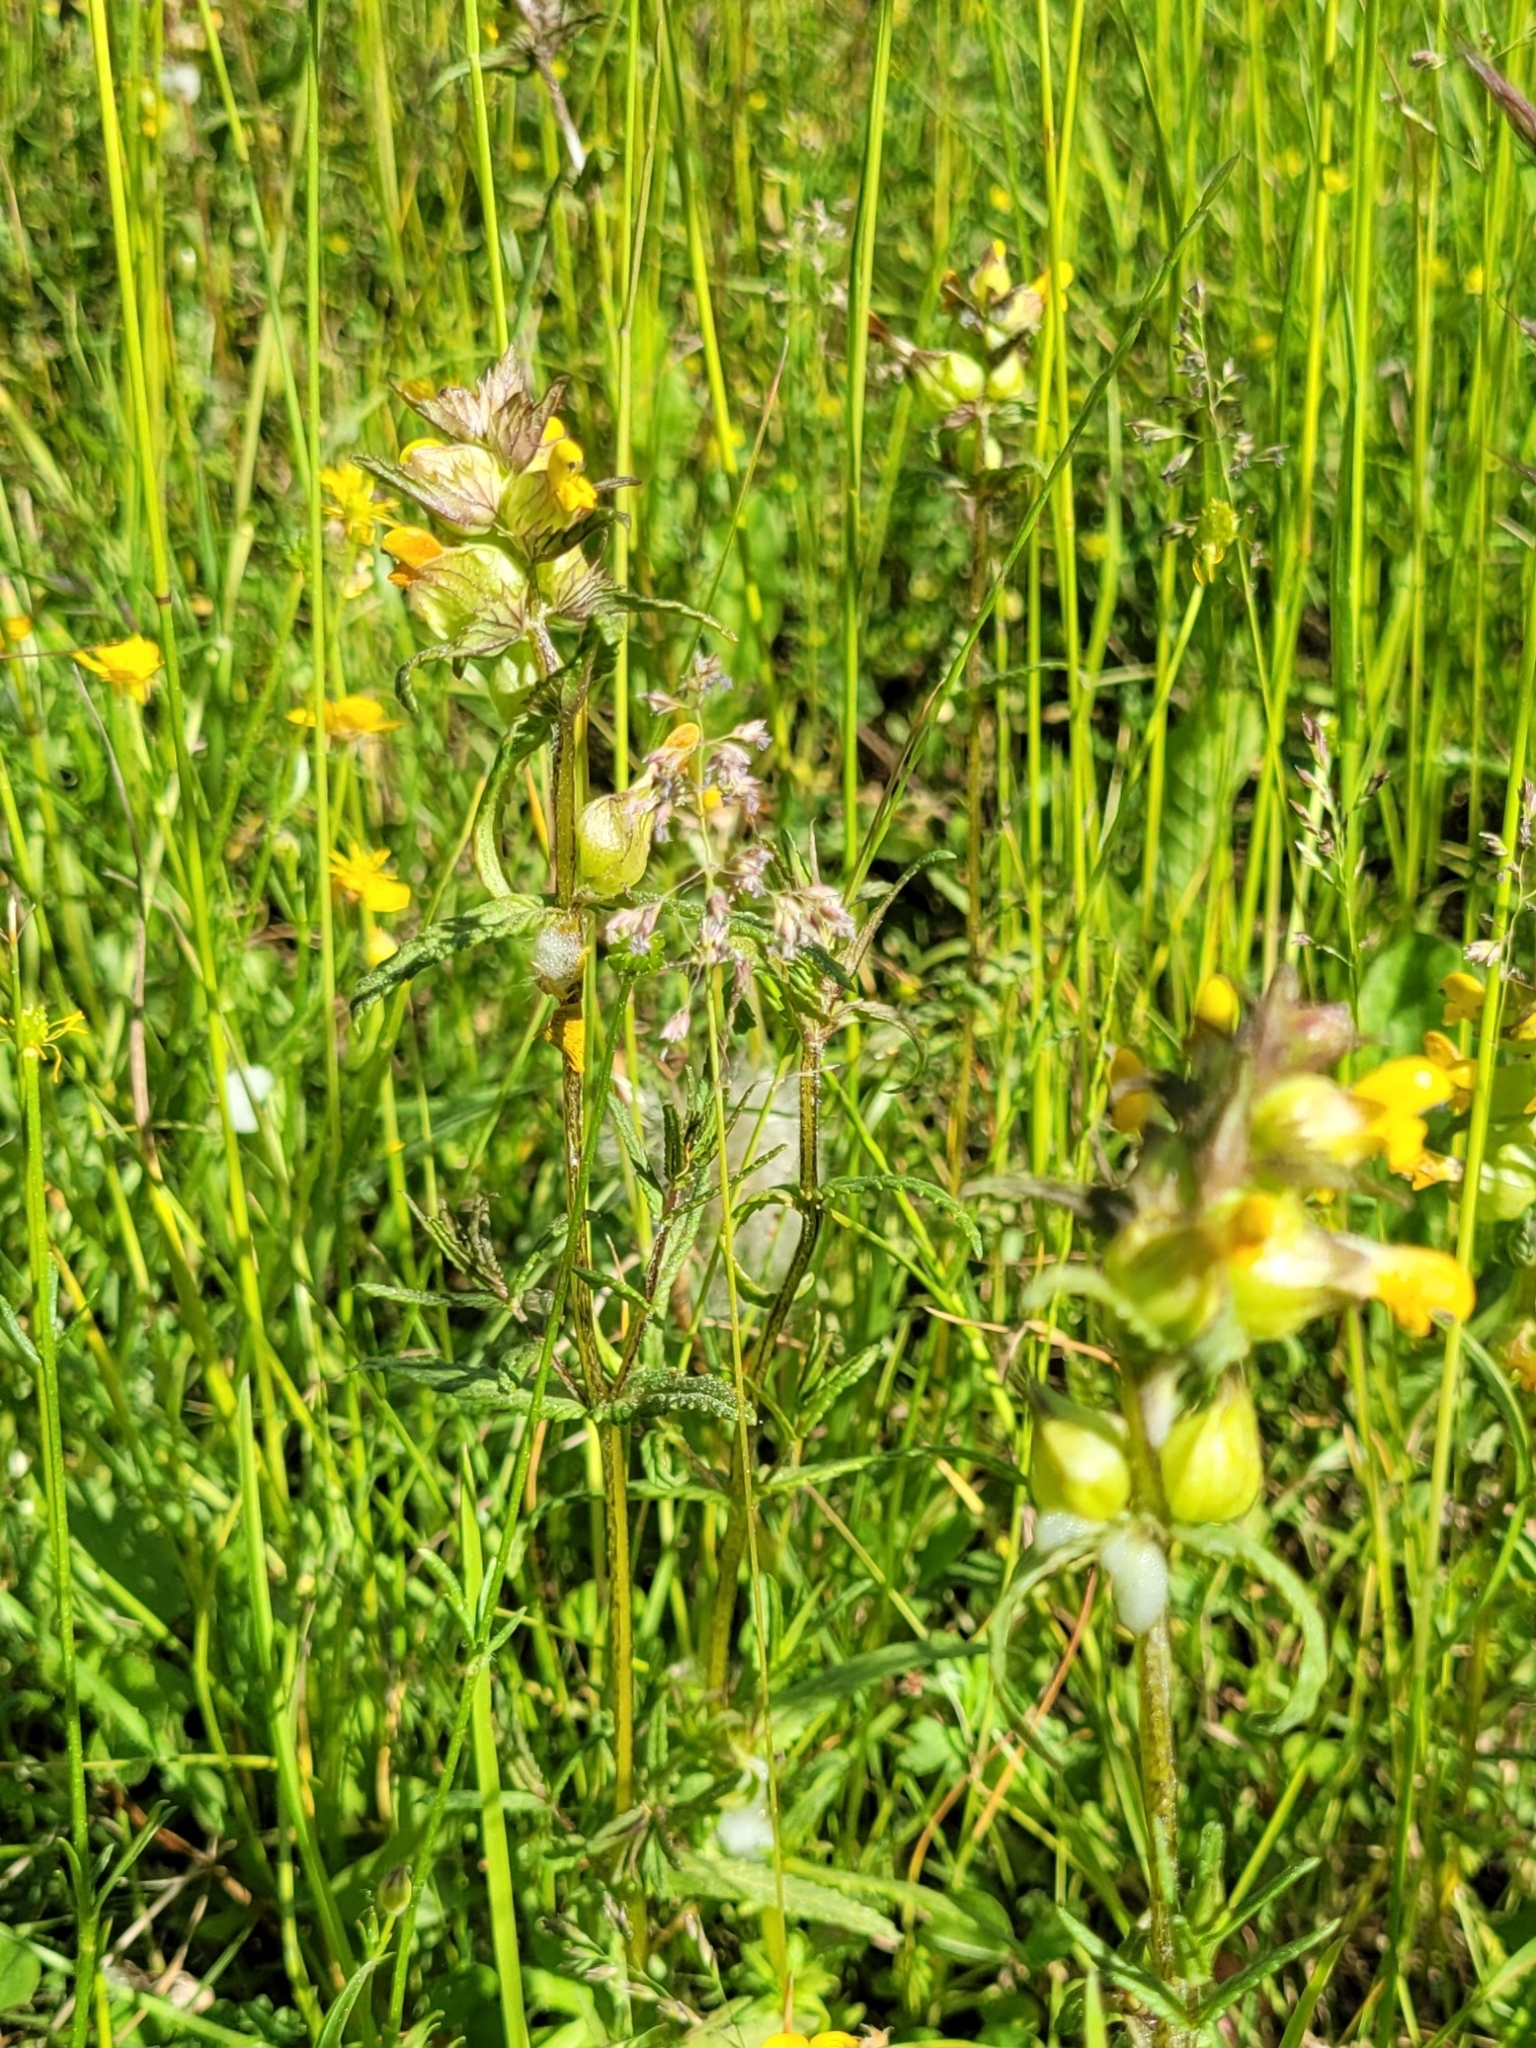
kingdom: Plantae
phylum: Tracheophyta
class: Magnoliopsida
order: Lamiales
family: Orobanchaceae
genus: Rhinanthus
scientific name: Rhinanthus minor
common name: Yellow-rattle
